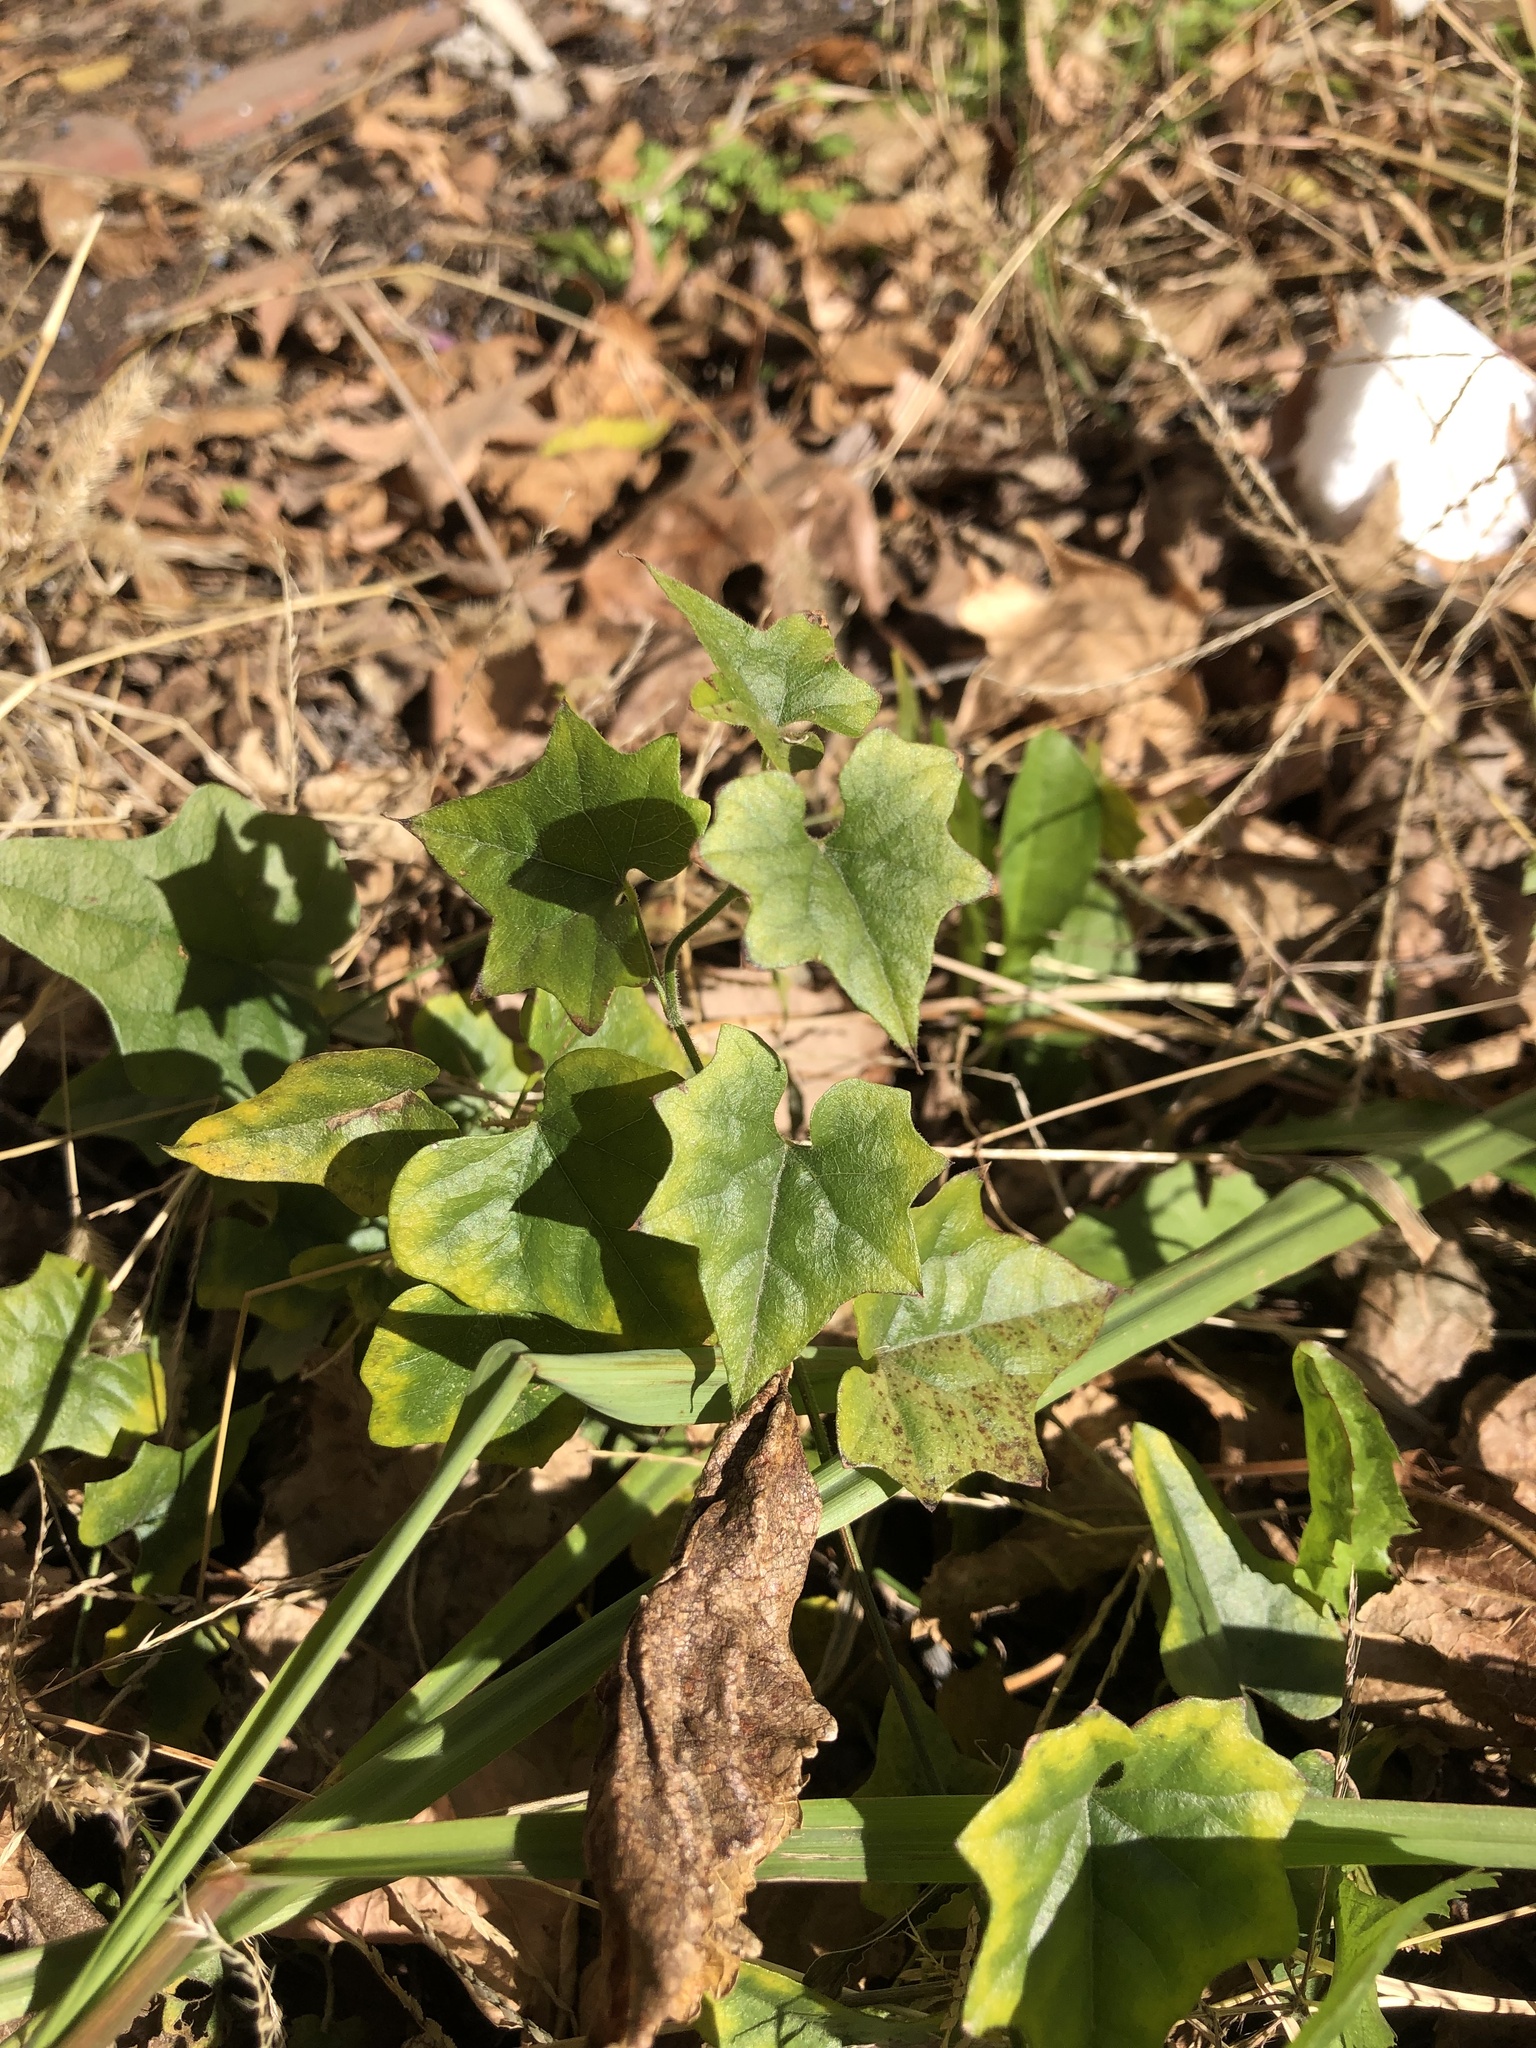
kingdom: Plantae
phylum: Tracheophyta
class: Magnoliopsida
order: Ranunculales
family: Menispermaceae
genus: Cocculus
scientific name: Cocculus carolinus
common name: Carolina moonseed
